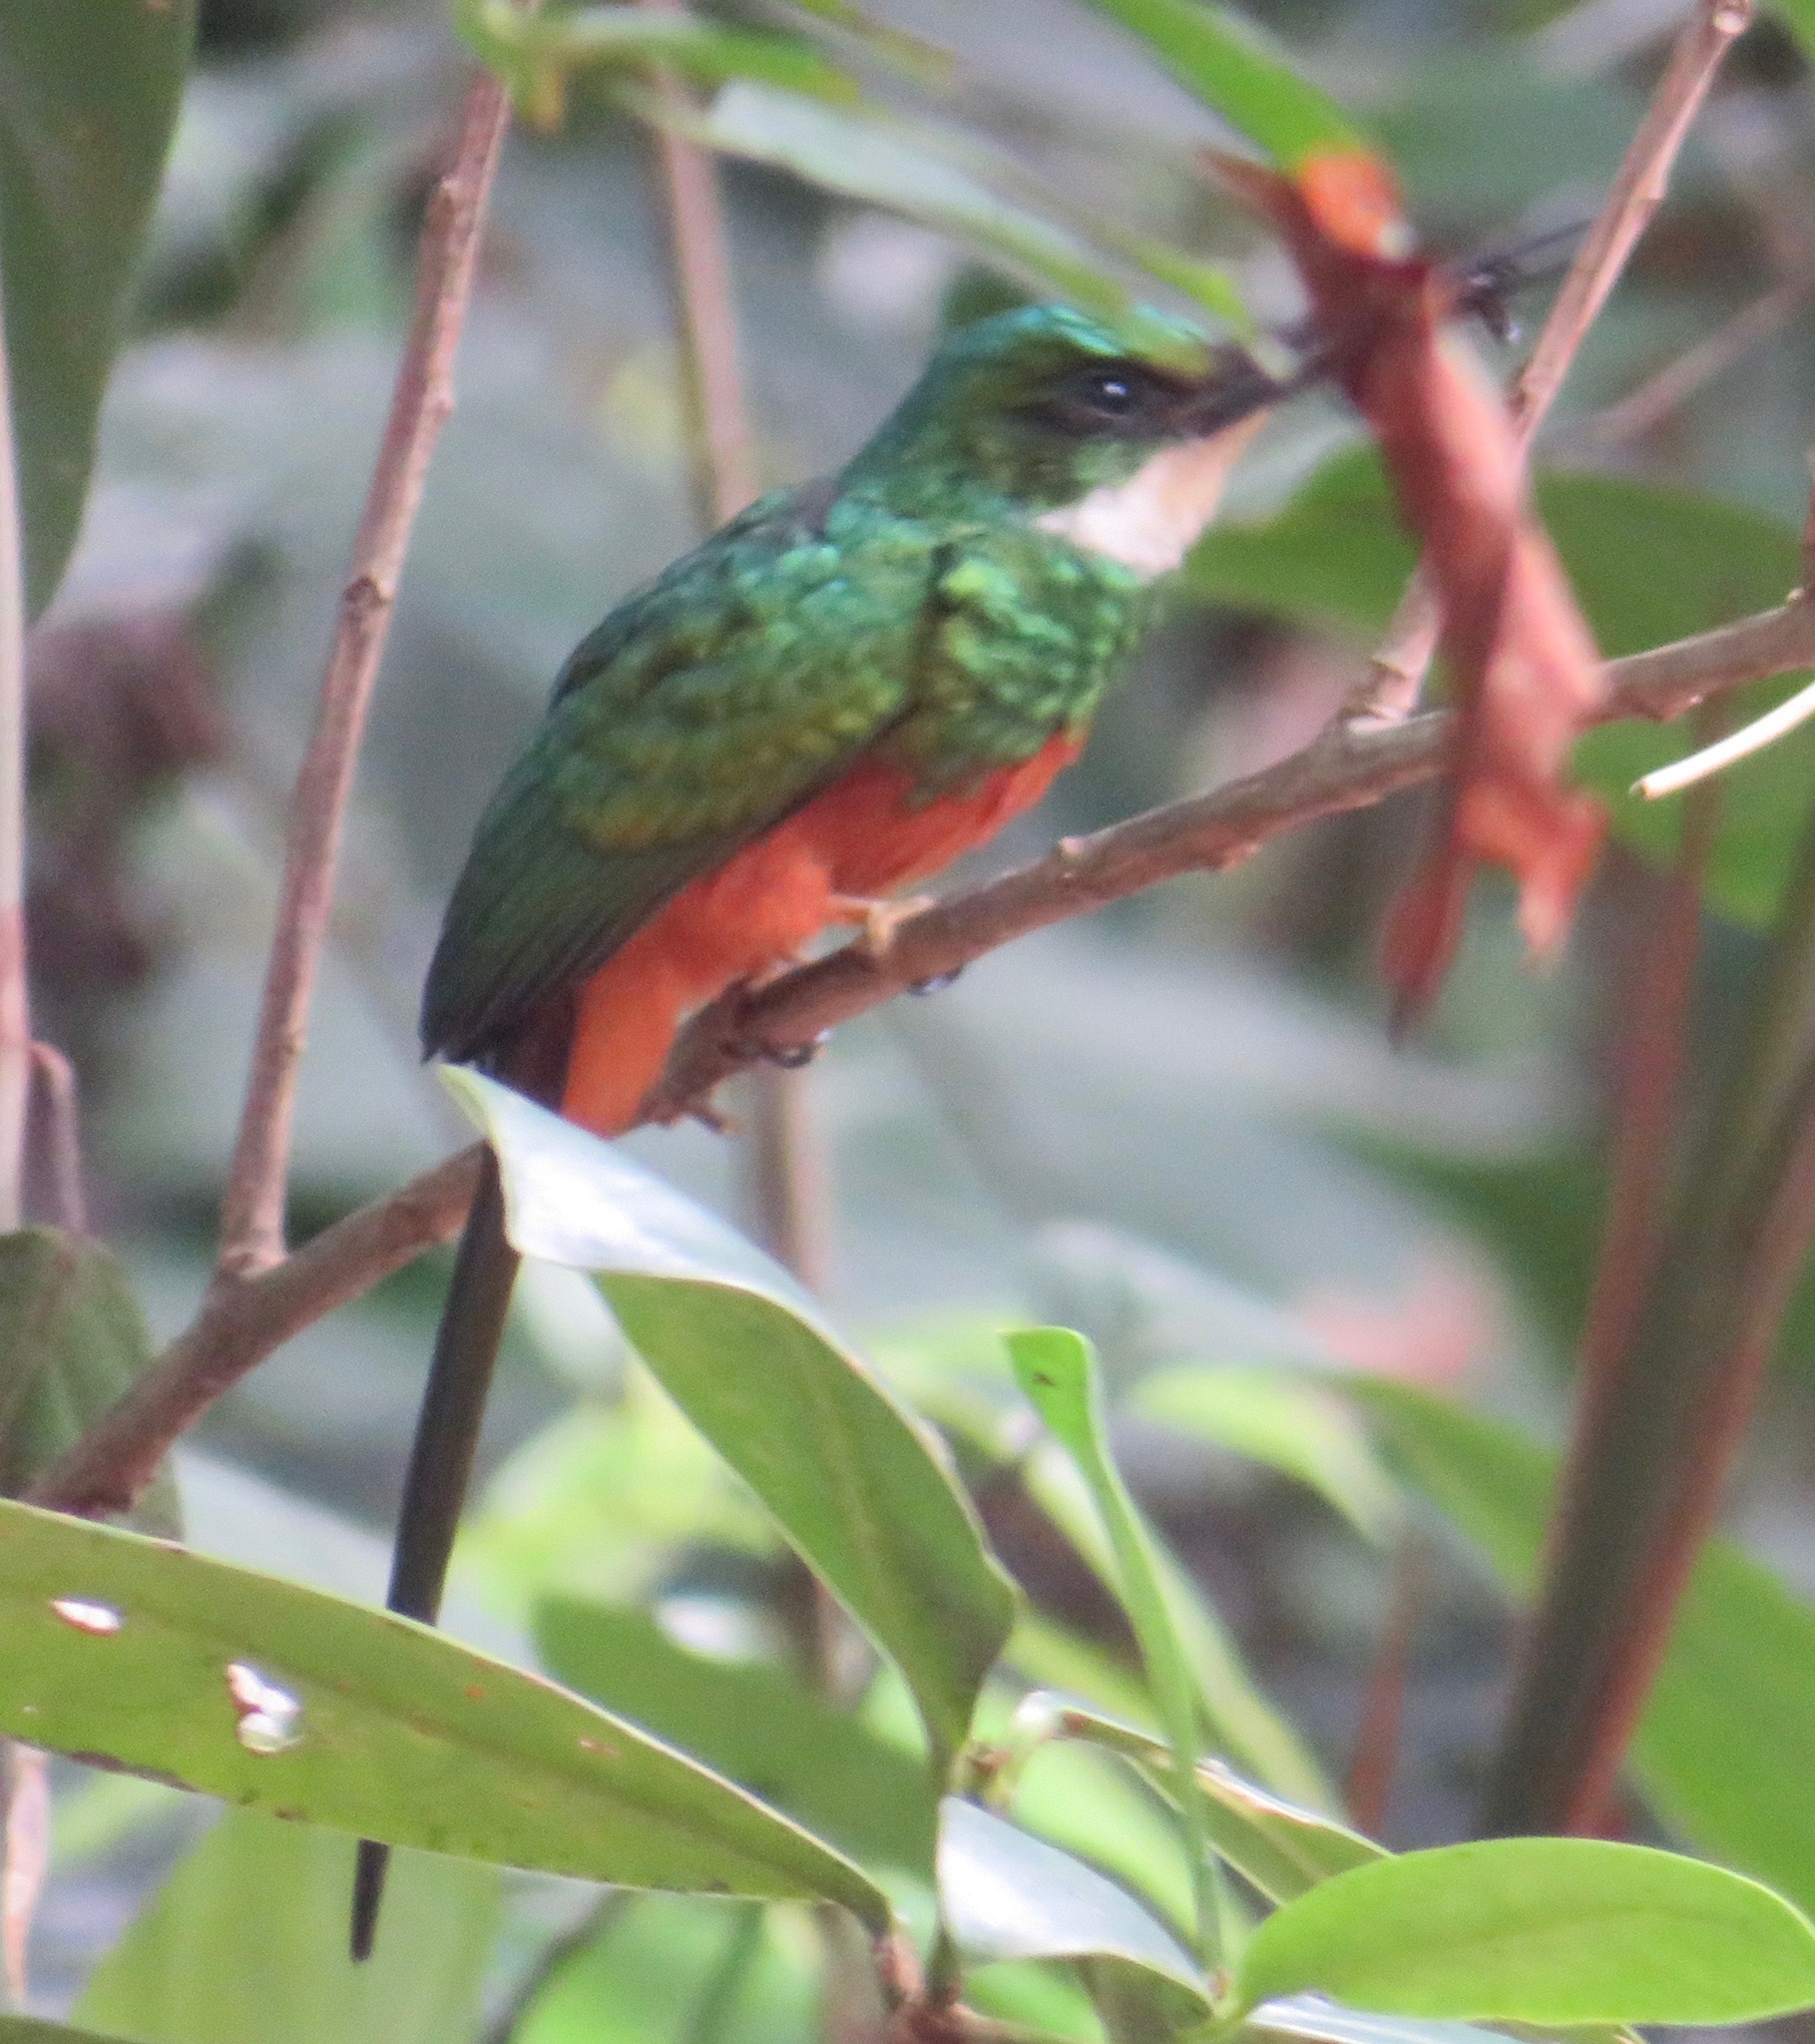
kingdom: Animalia
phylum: Chordata
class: Aves
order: Piciformes
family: Galbulidae
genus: Galbula
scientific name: Galbula ruficauda
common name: Rufous-tailed jacamar
